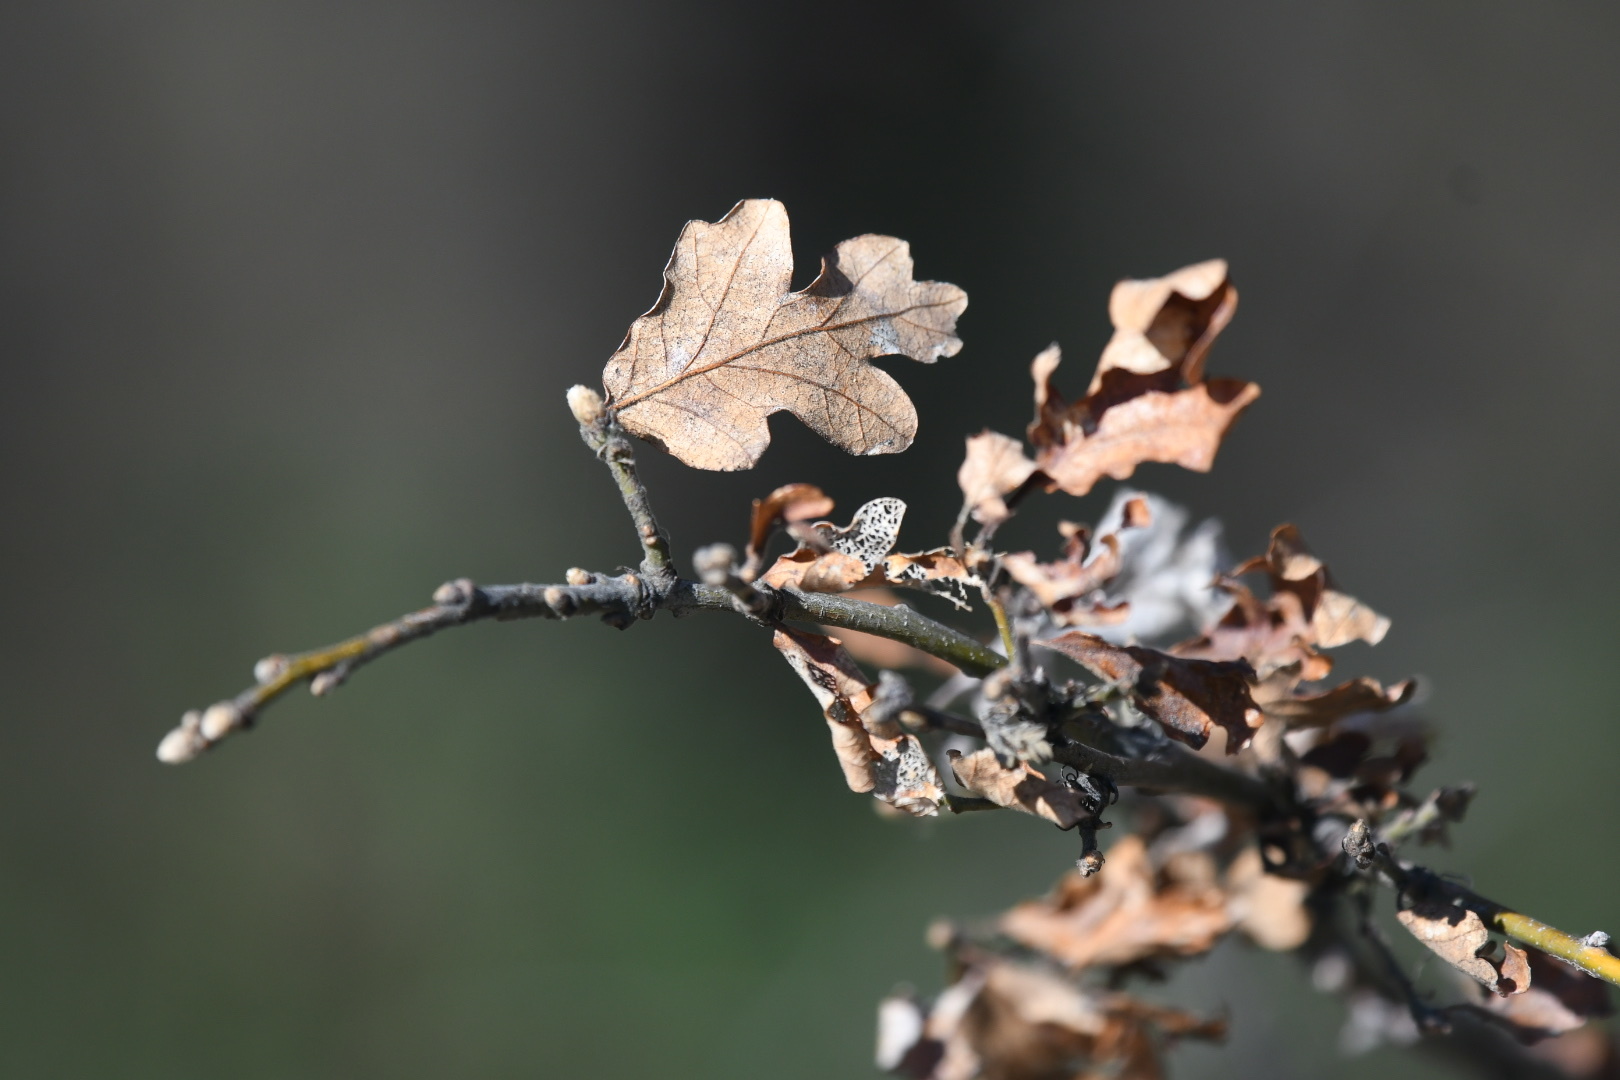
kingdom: Plantae
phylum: Tracheophyta
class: Magnoliopsida
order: Fagales
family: Fagaceae
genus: Quercus
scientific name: Quercus garryana
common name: Garry oak
